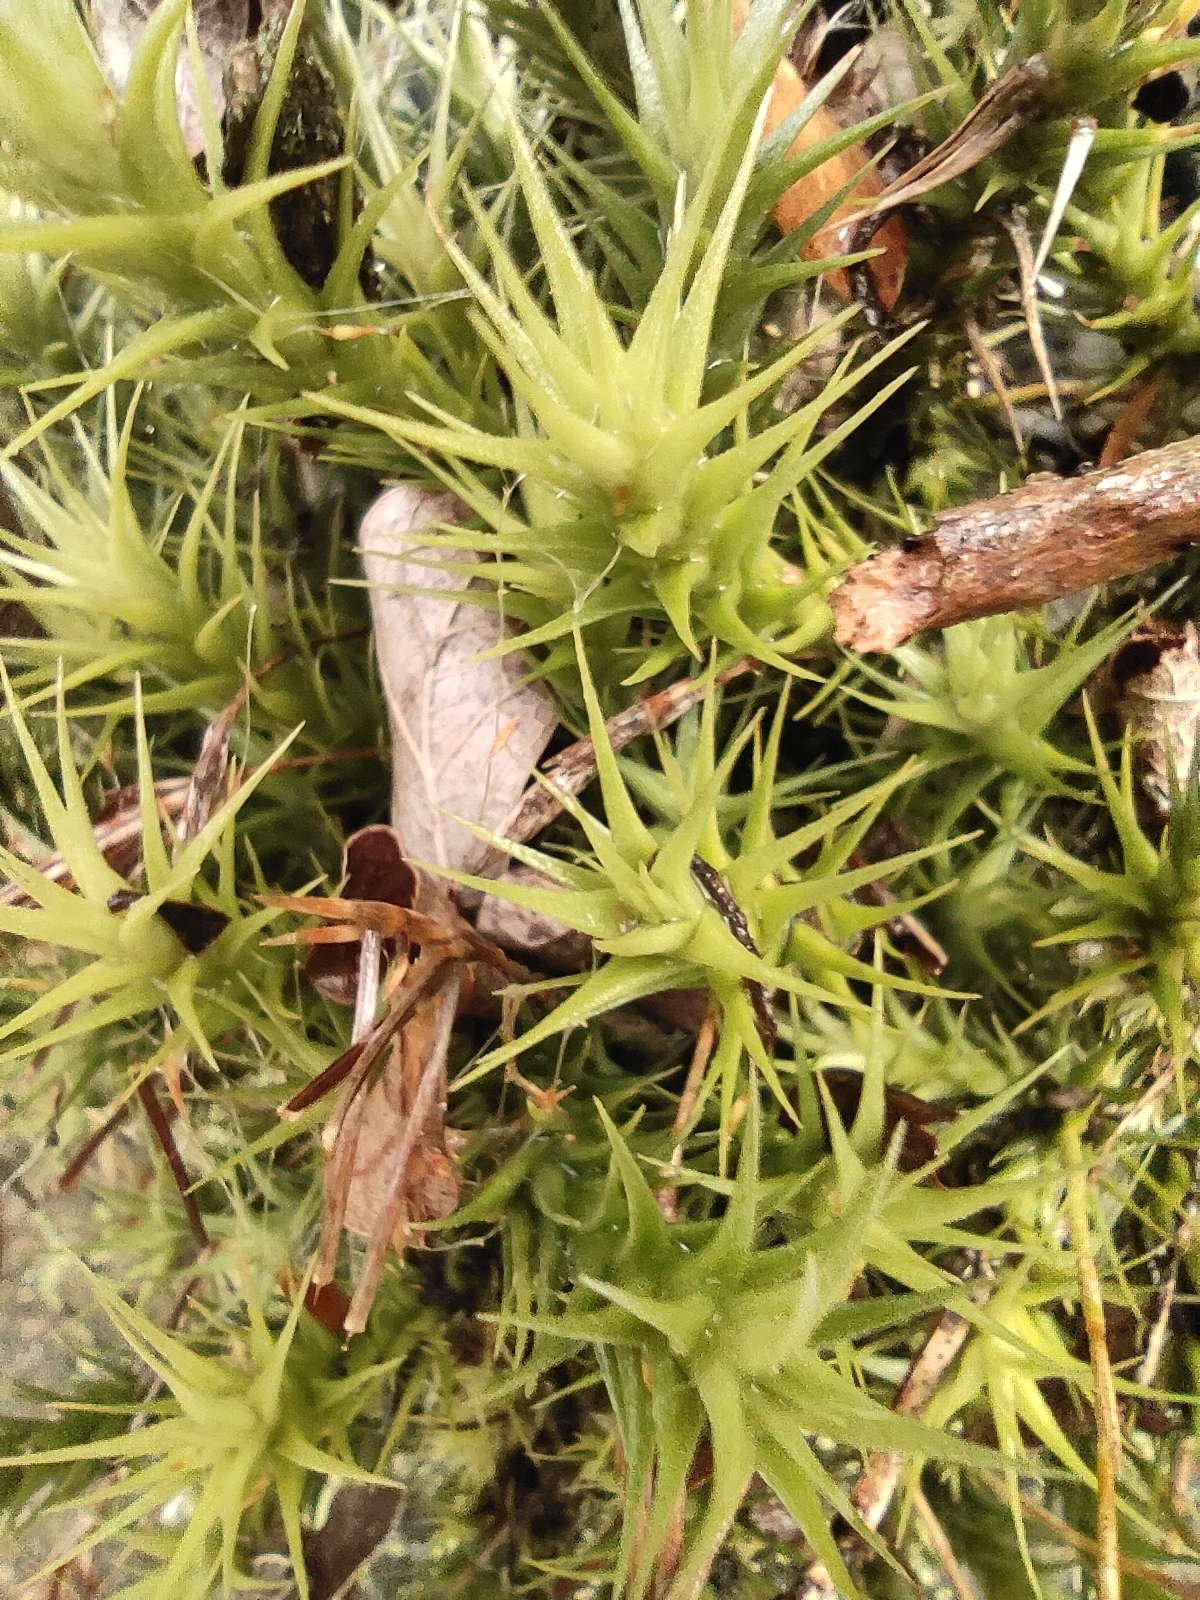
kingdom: Plantae
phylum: Tracheophyta
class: Liliopsida
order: Poales
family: Bromeliaceae
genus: Tillandsia
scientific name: Tillandsia tricholepis
